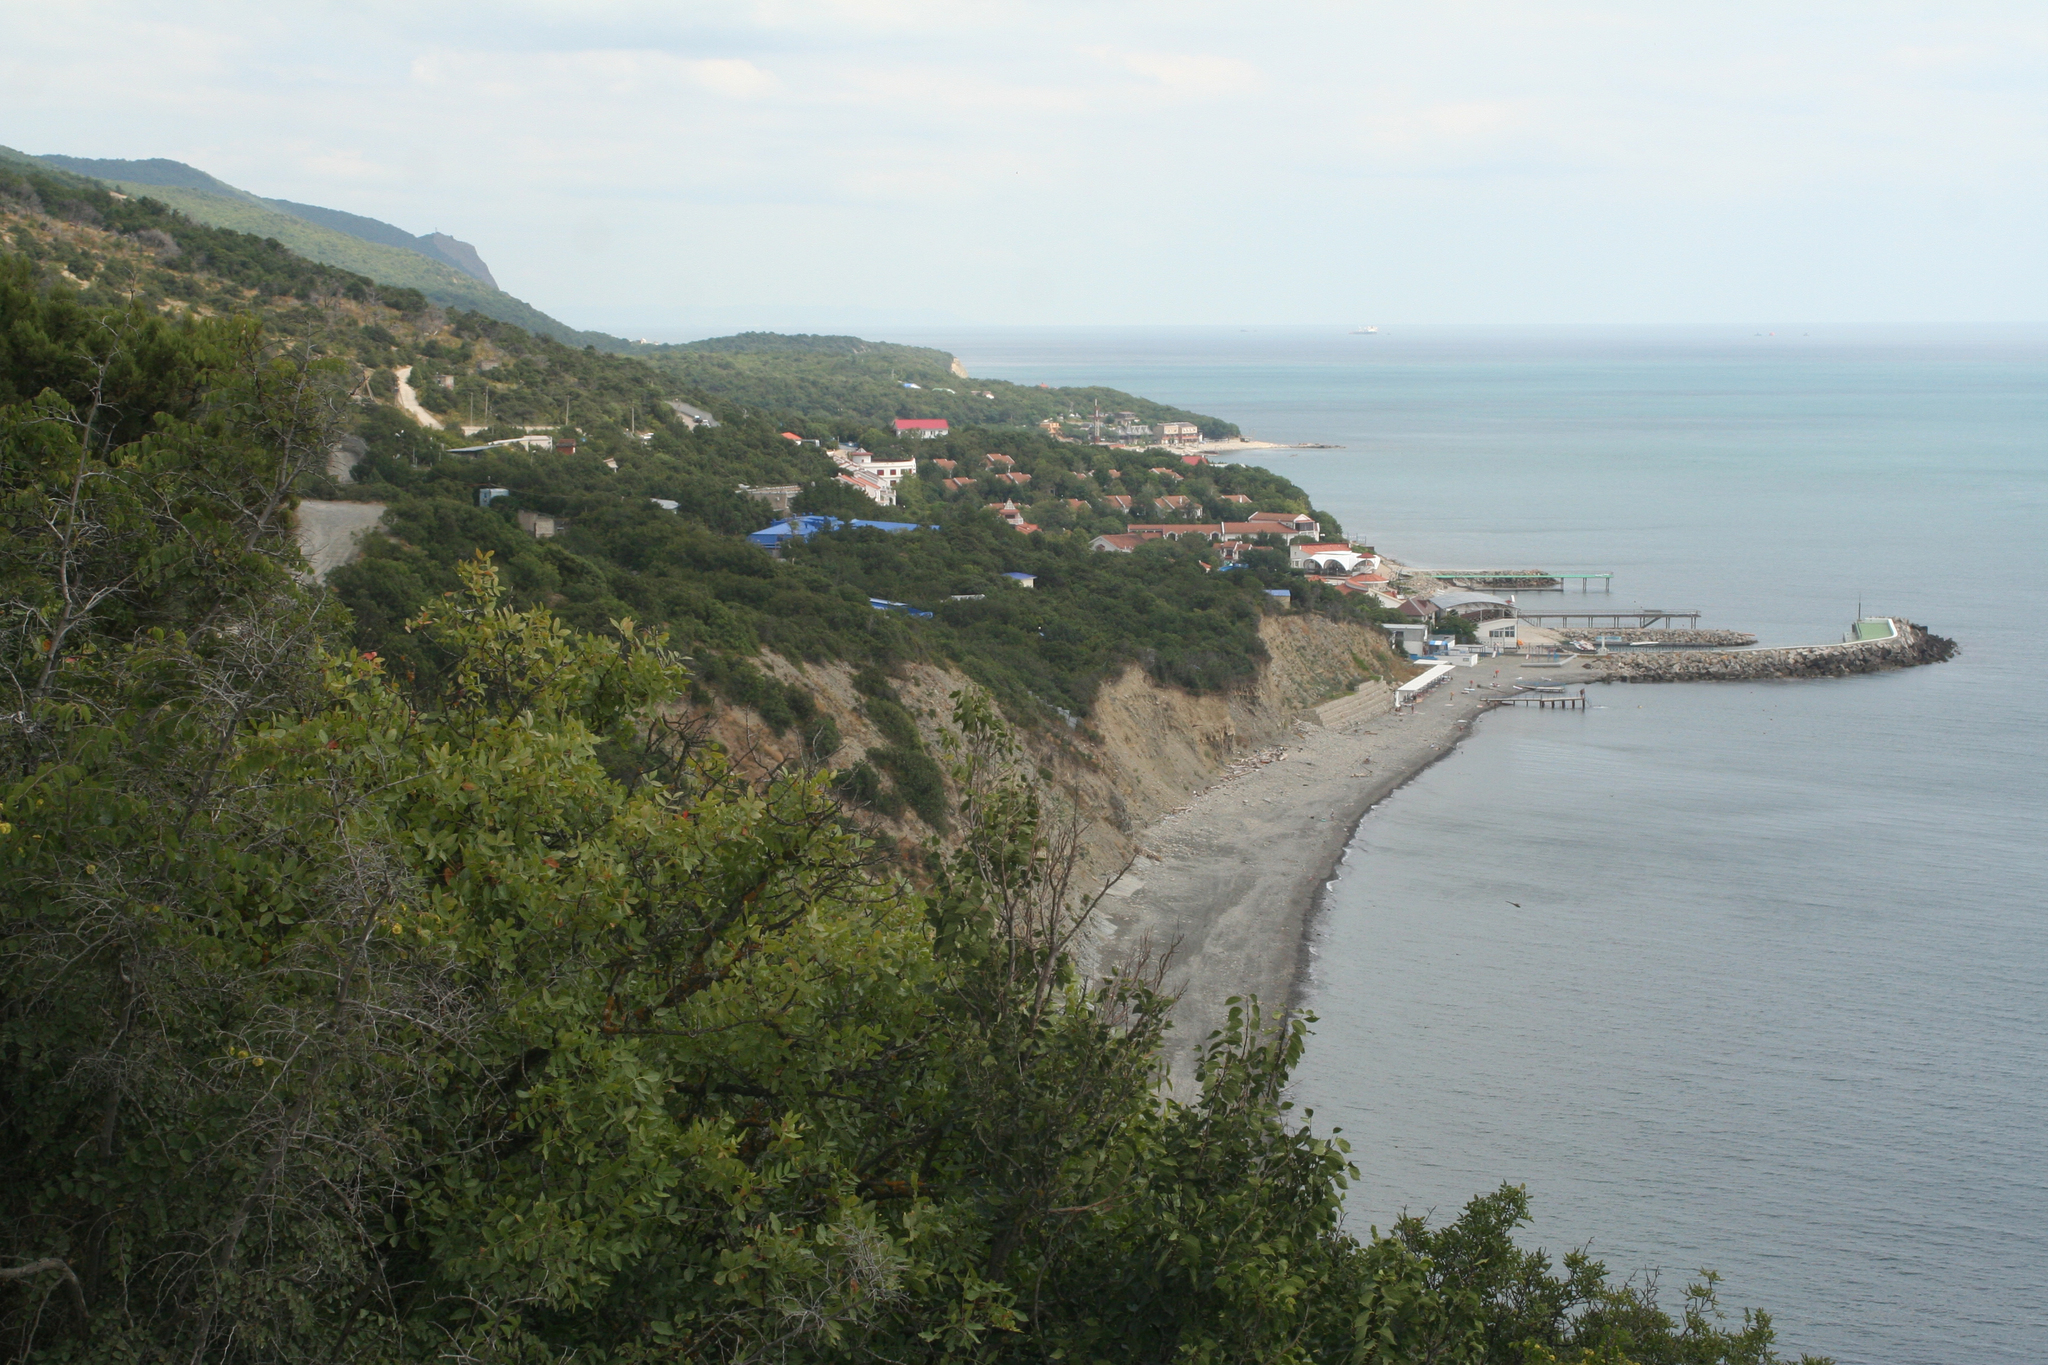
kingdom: Plantae
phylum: Tracheophyta
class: Magnoliopsida
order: Sapindales
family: Anacardiaceae
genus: Pistacia
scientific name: Pistacia atlantica
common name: Mt. atlas mastic tree
